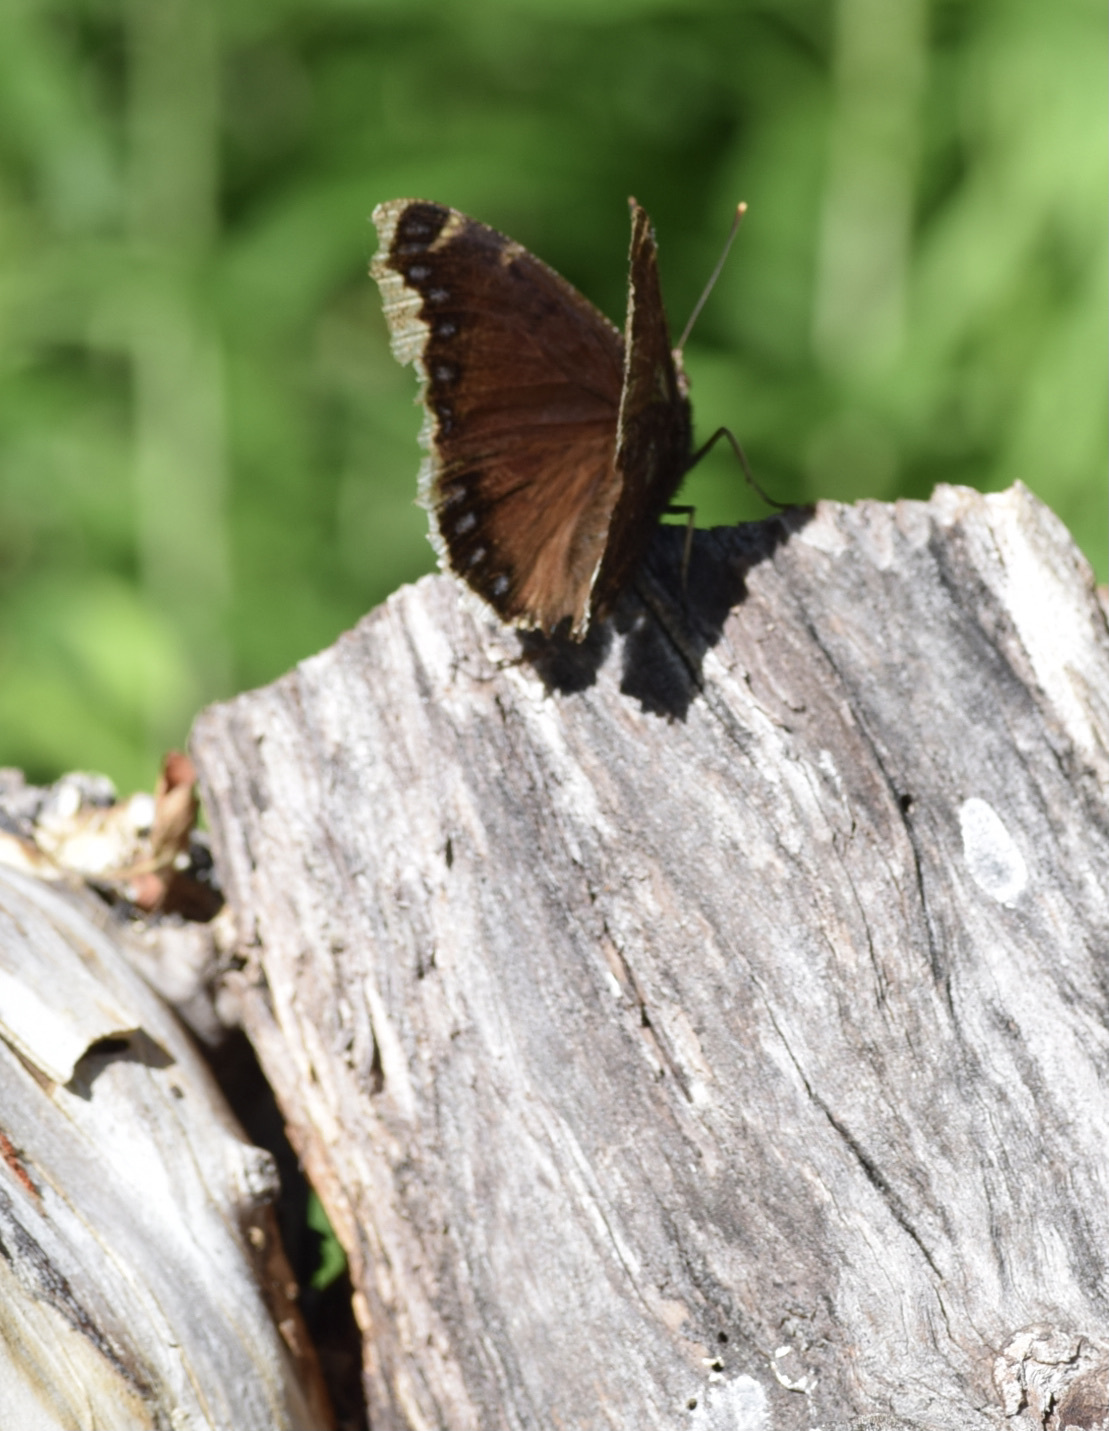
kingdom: Animalia
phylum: Arthropoda
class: Insecta
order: Lepidoptera
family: Nymphalidae
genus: Nymphalis
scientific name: Nymphalis antiopa
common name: Camberwell beauty
